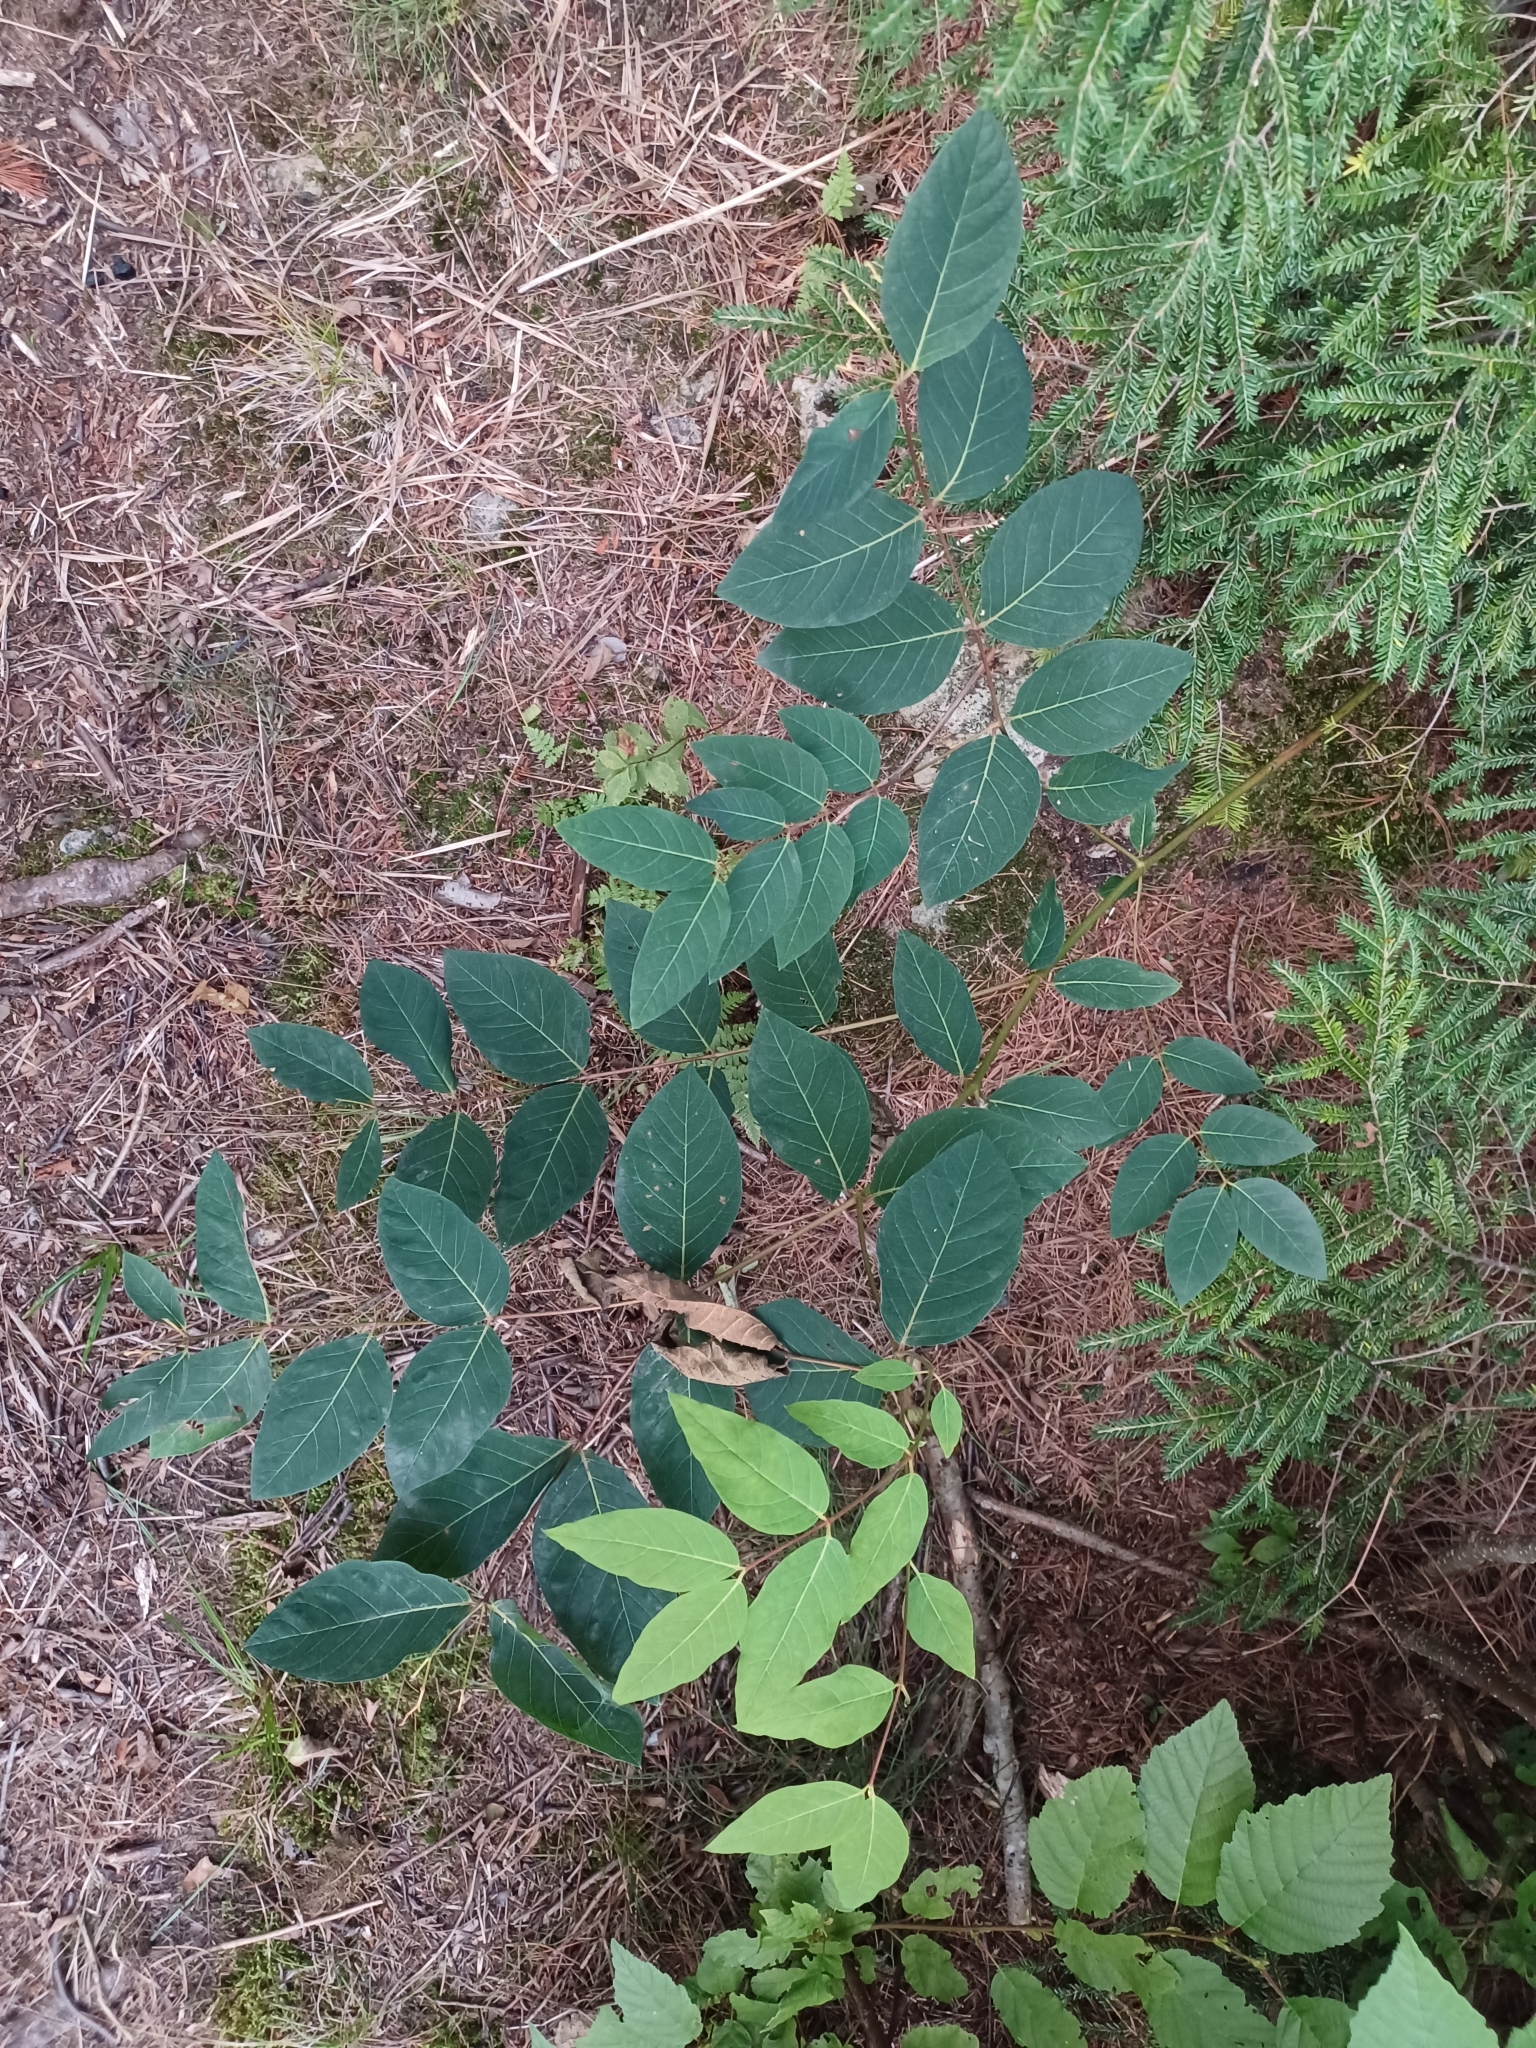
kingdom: Plantae
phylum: Tracheophyta
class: Magnoliopsida
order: Gentianales
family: Apocynaceae
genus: Apocynum
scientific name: Apocynum androsaemifolium
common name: Spreading dogbane
